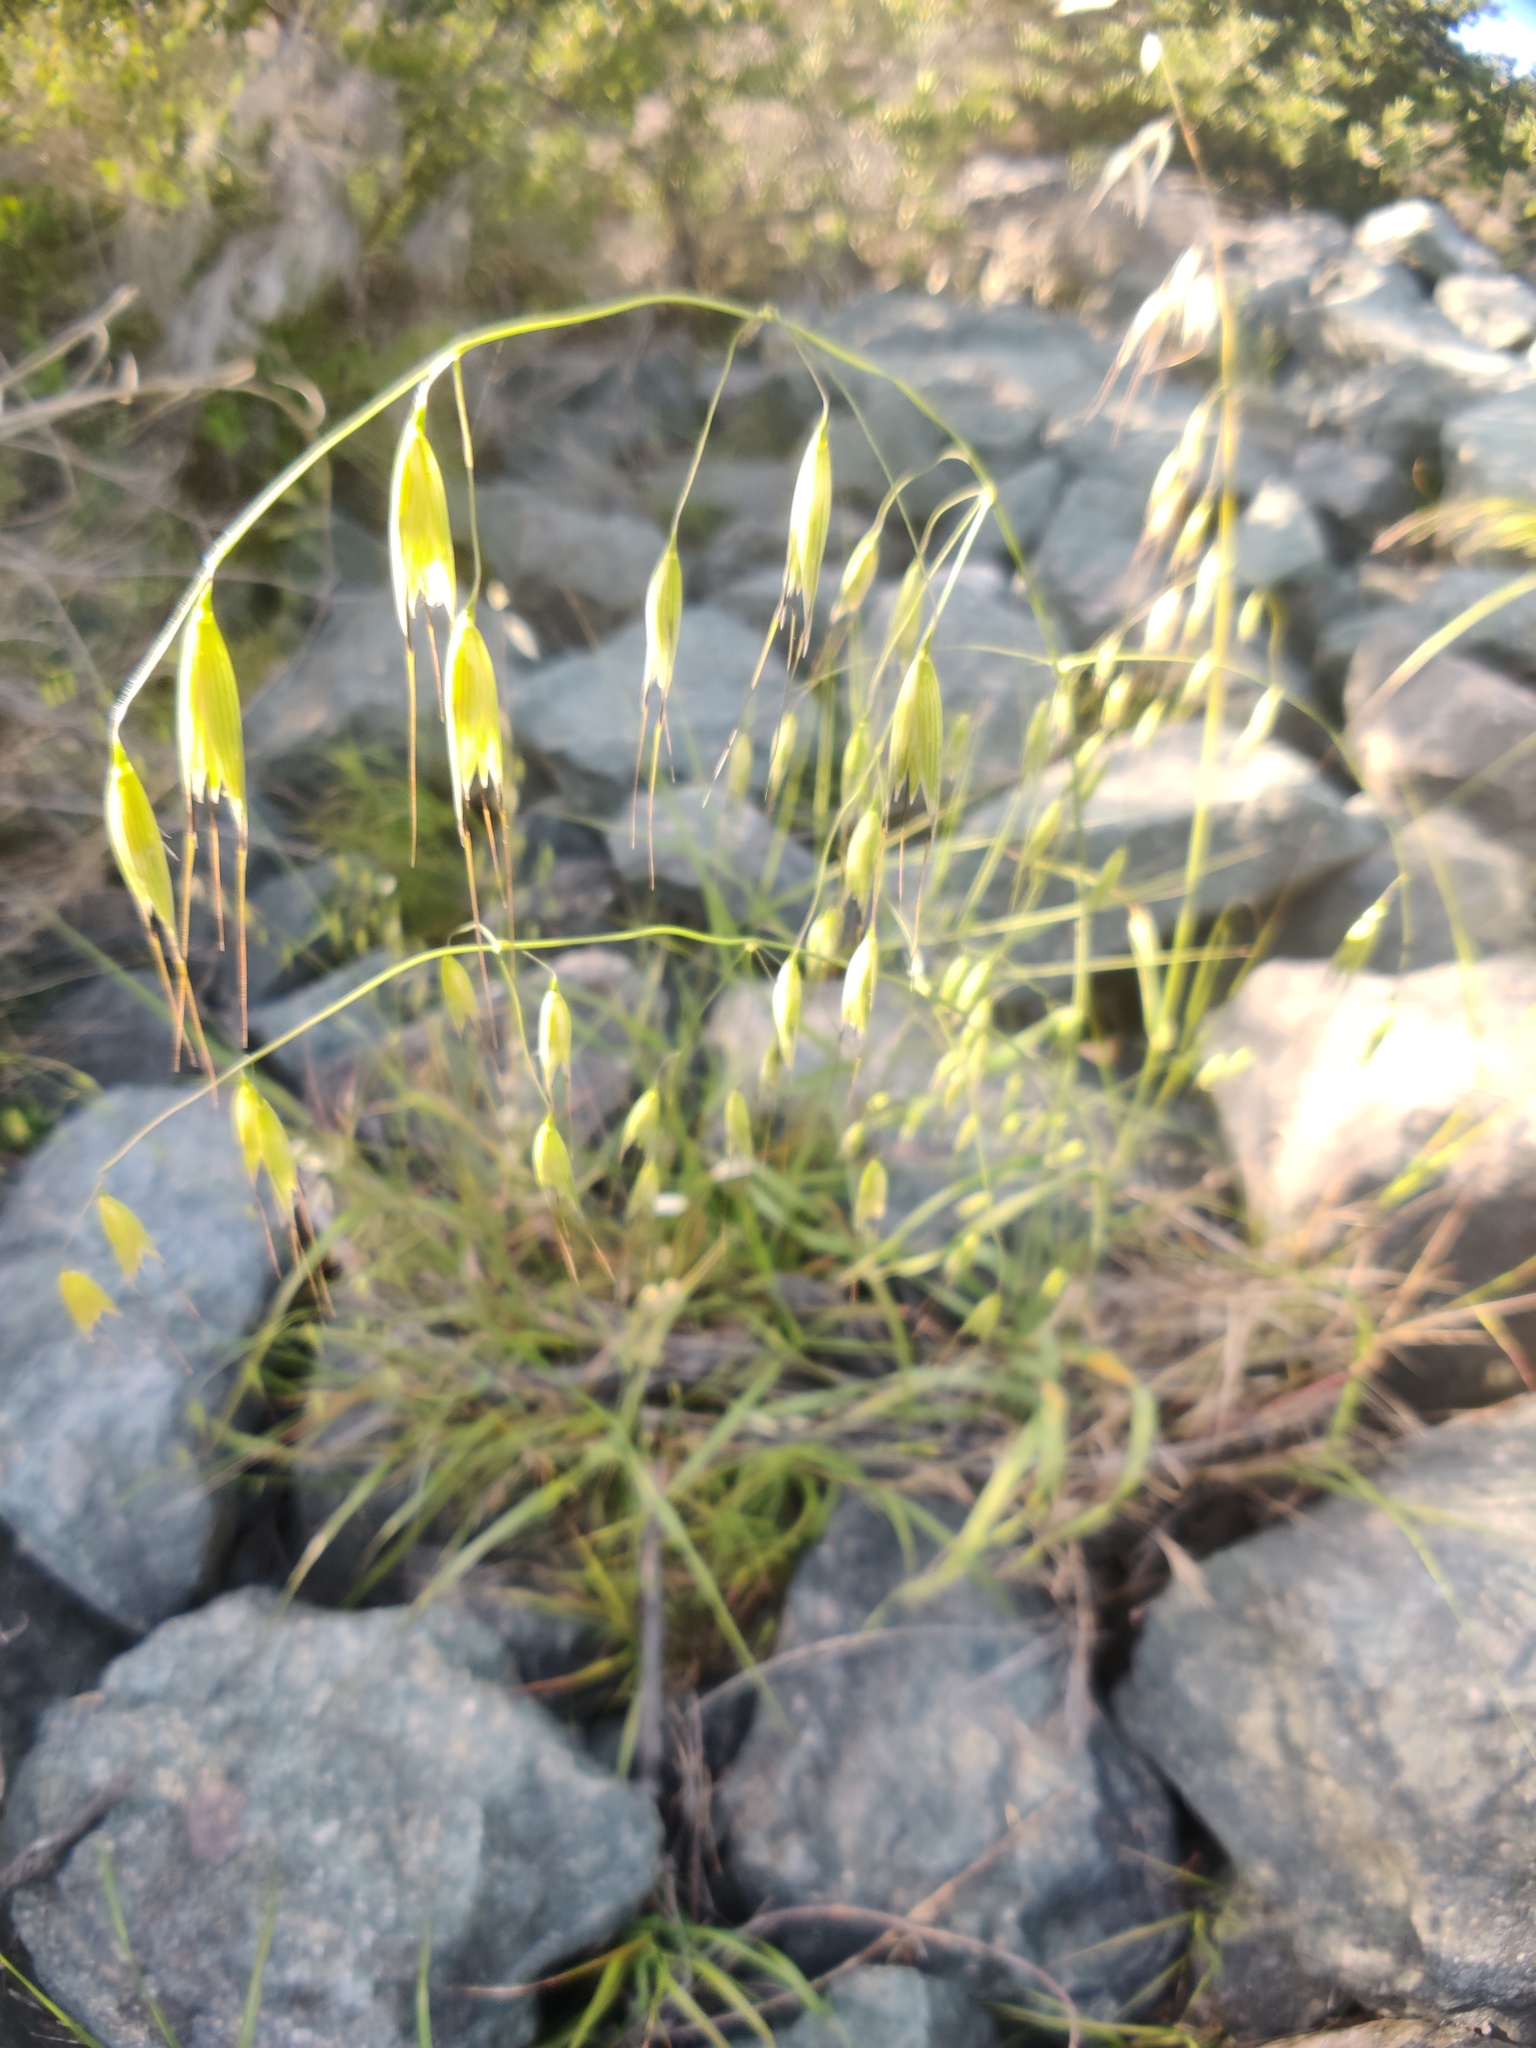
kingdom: Plantae
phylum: Tracheophyta
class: Liliopsida
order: Poales
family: Poaceae
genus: Avena
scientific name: Avena fatua
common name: Wild oat
